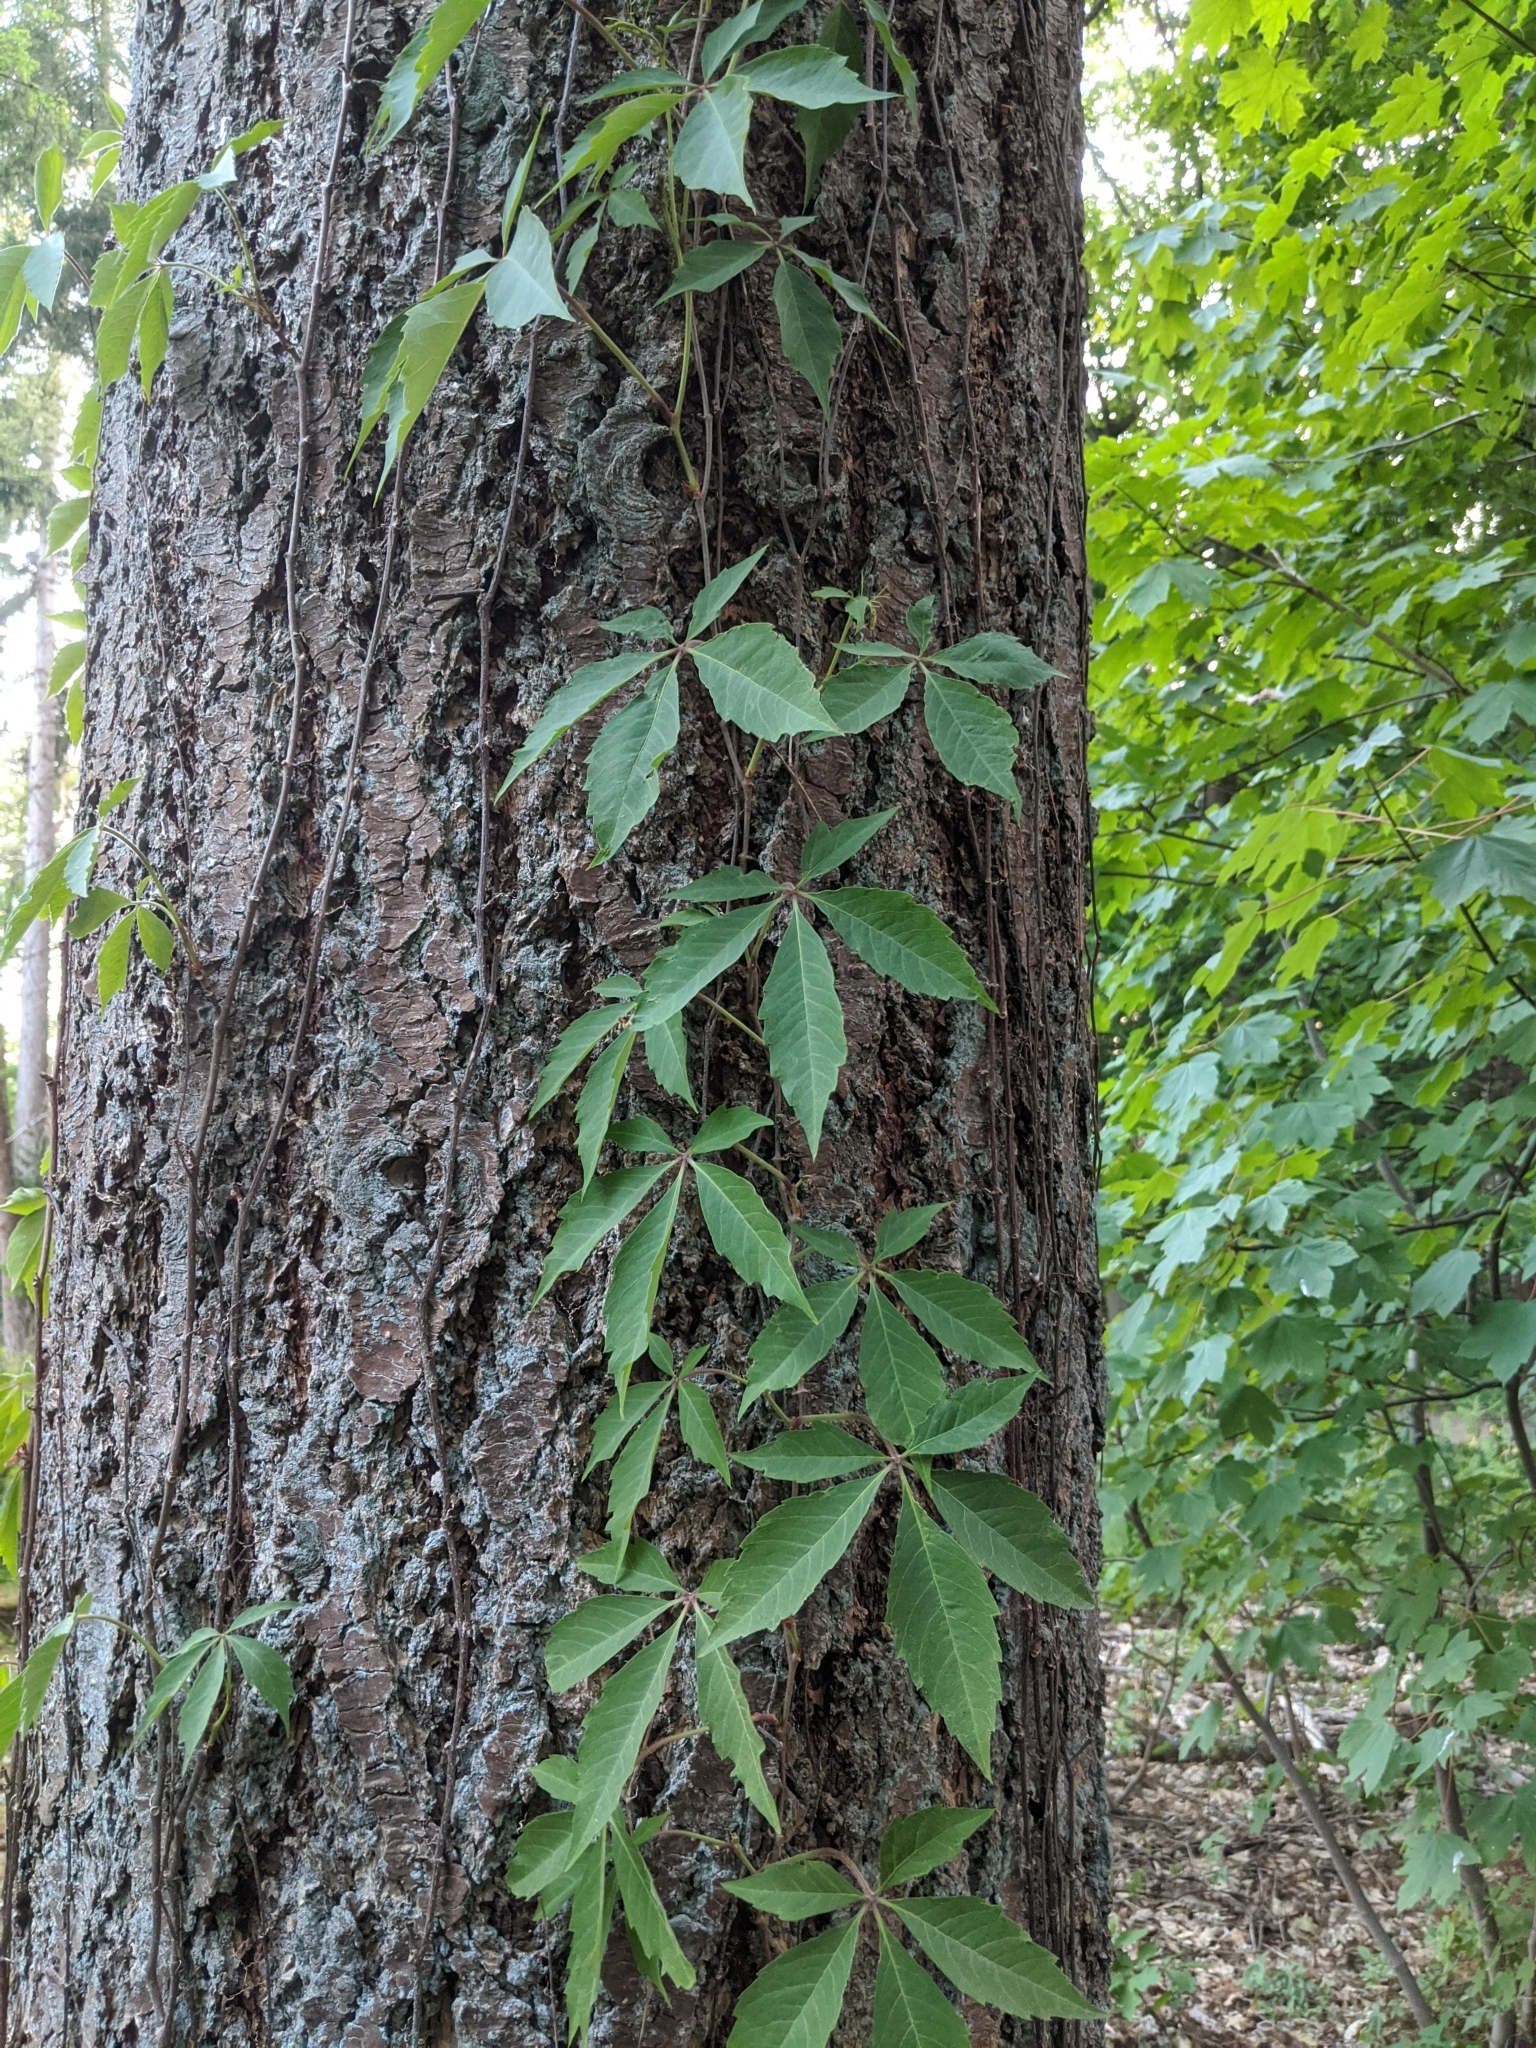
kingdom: Plantae
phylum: Tracheophyta
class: Magnoliopsida
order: Vitales
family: Vitaceae
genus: Parthenocissus
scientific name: Parthenocissus quinquefolia
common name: Virginia-creeper
